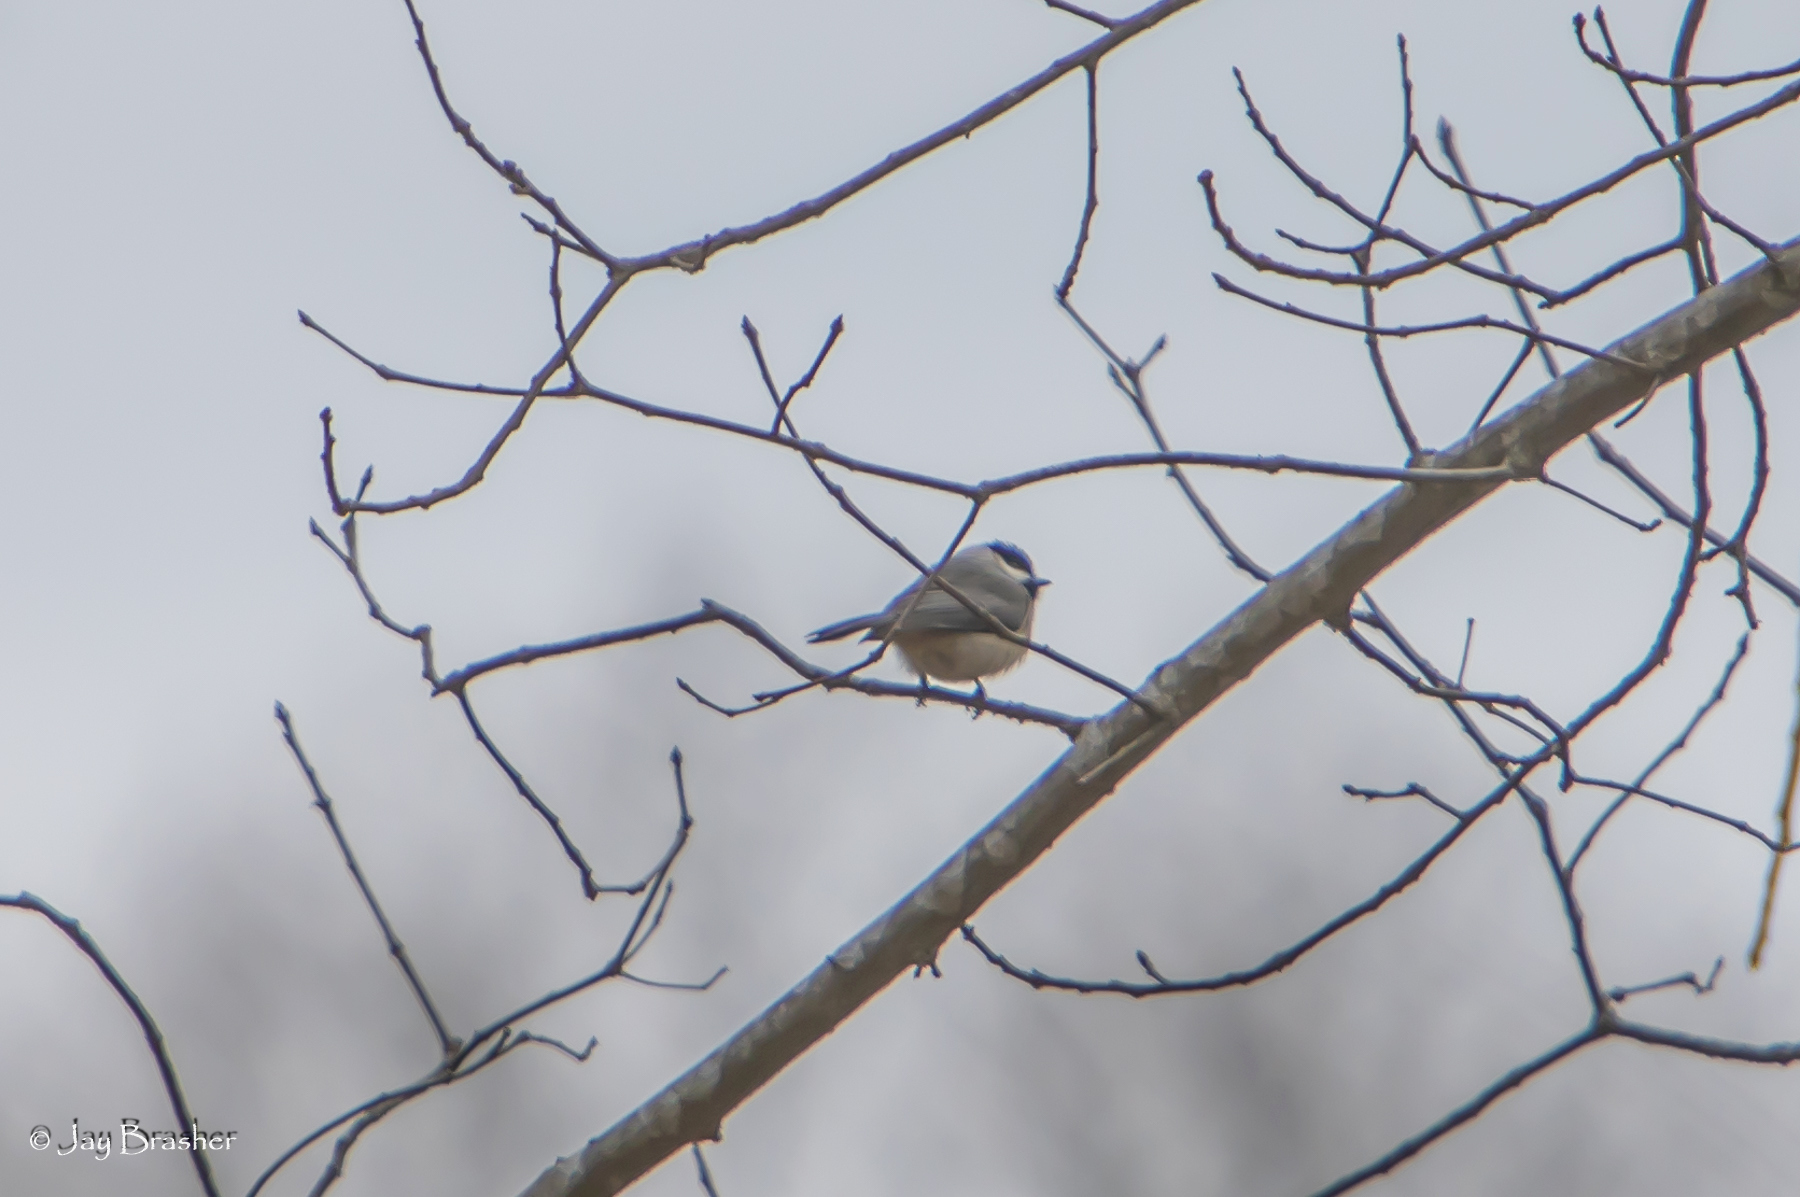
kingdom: Animalia
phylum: Chordata
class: Aves
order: Passeriformes
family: Paridae
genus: Poecile
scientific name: Poecile carolinensis
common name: Carolina chickadee
